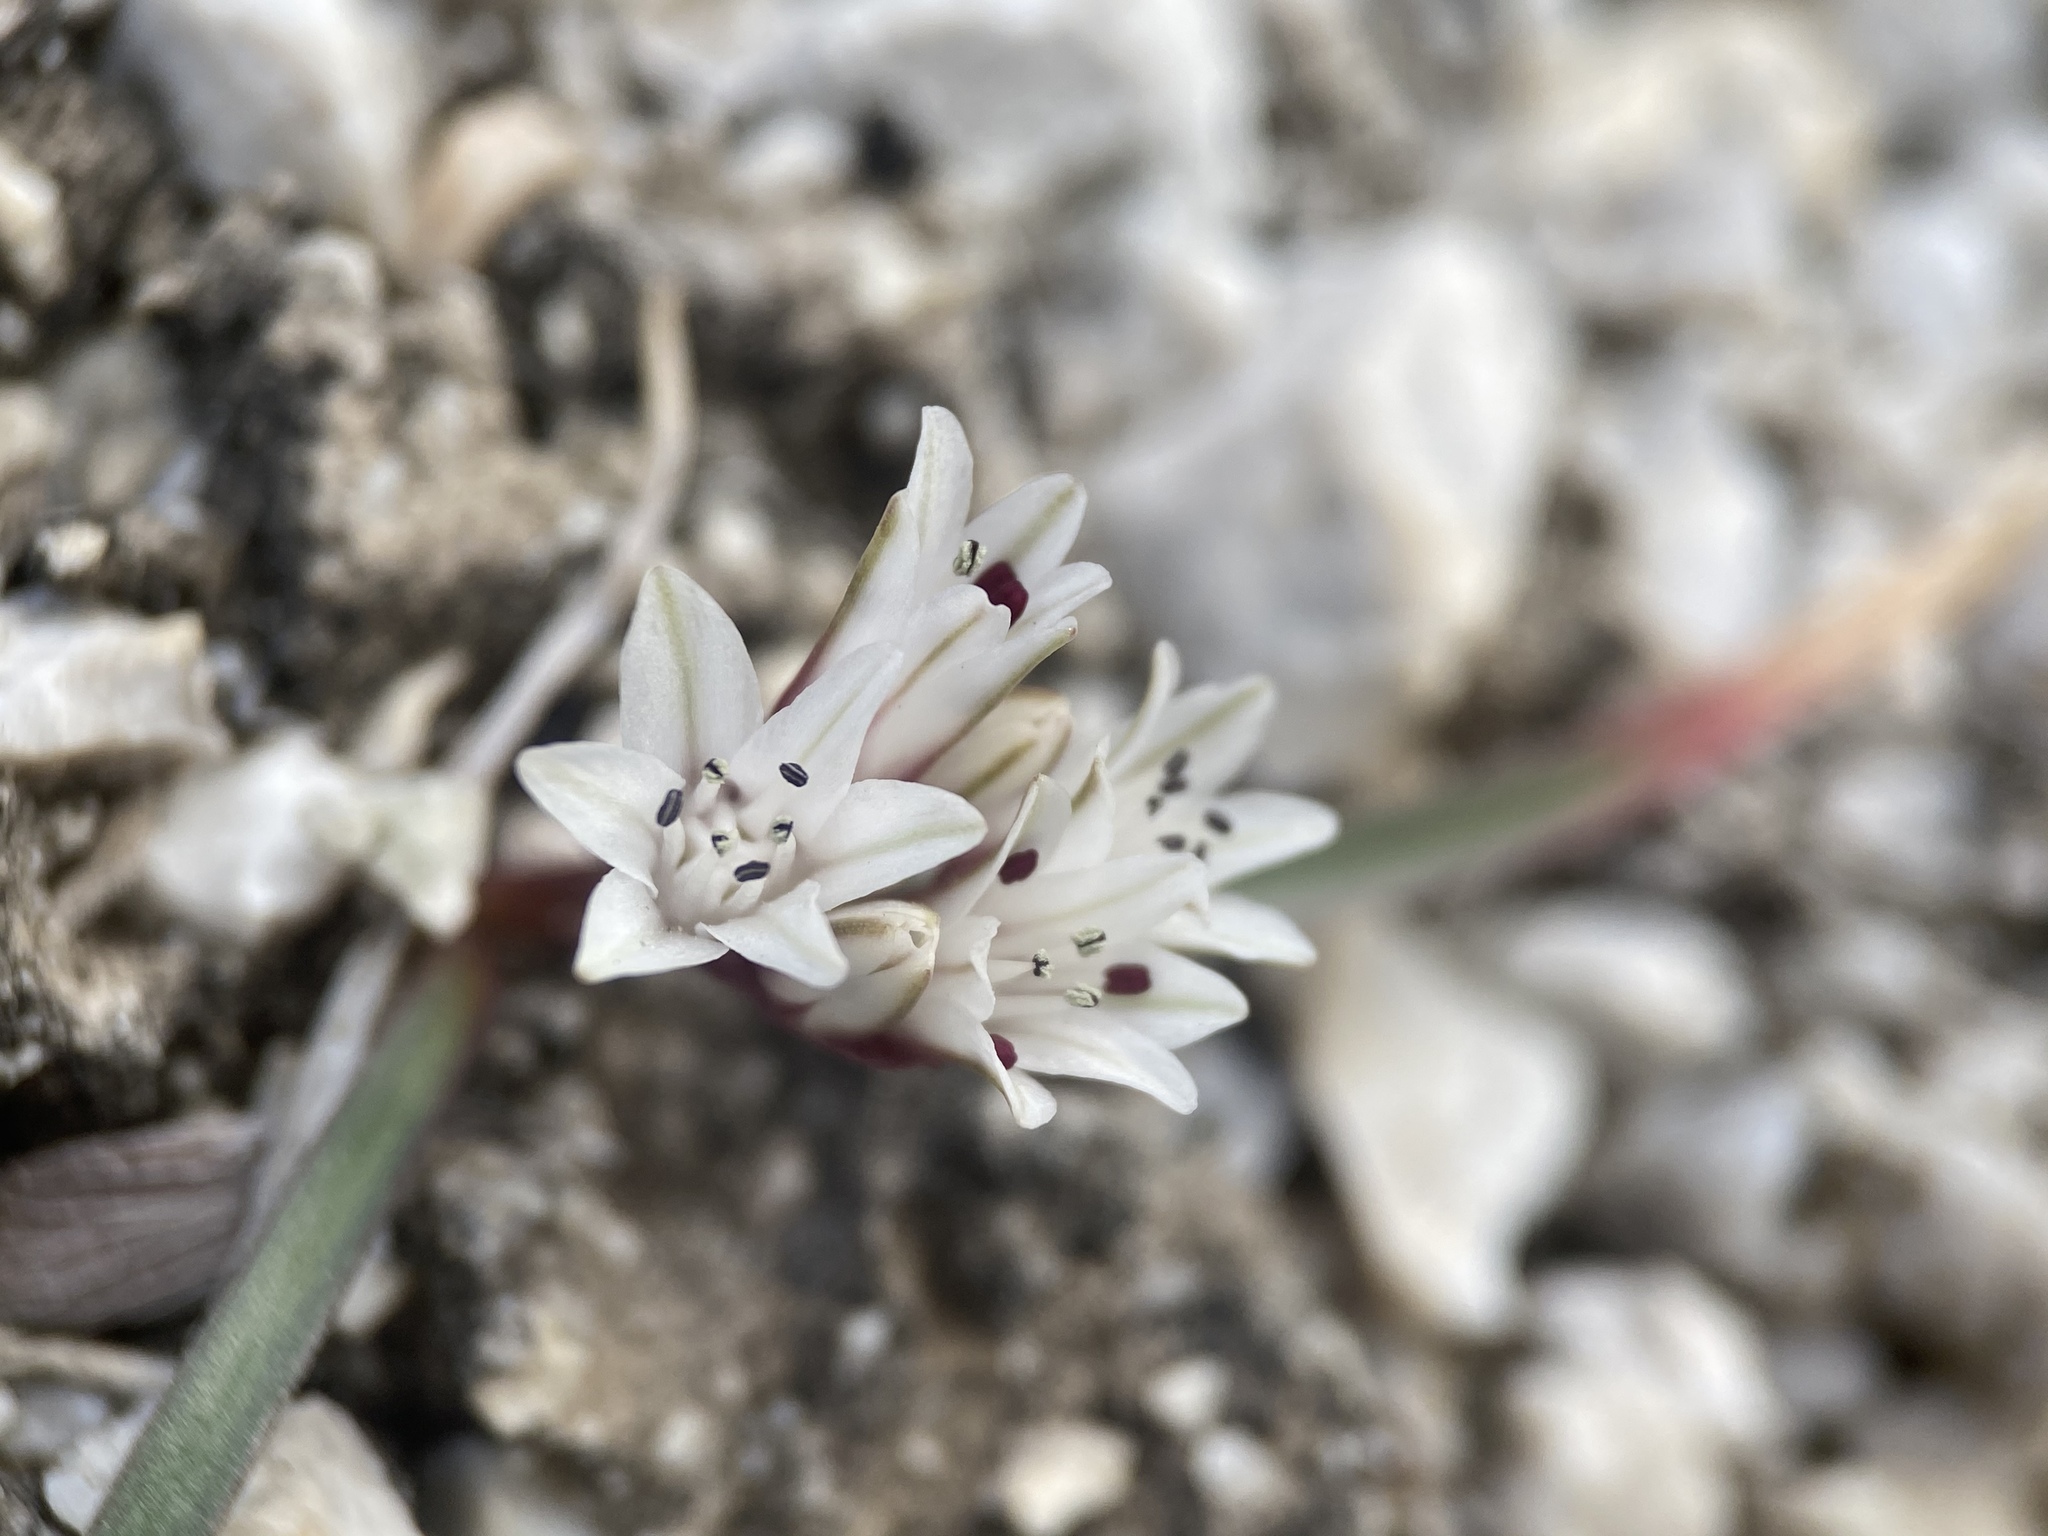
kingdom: Plantae
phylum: Tracheophyta
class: Liliopsida
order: Asparagales
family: Amaryllidaceae
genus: Allium
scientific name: Allium parvum
